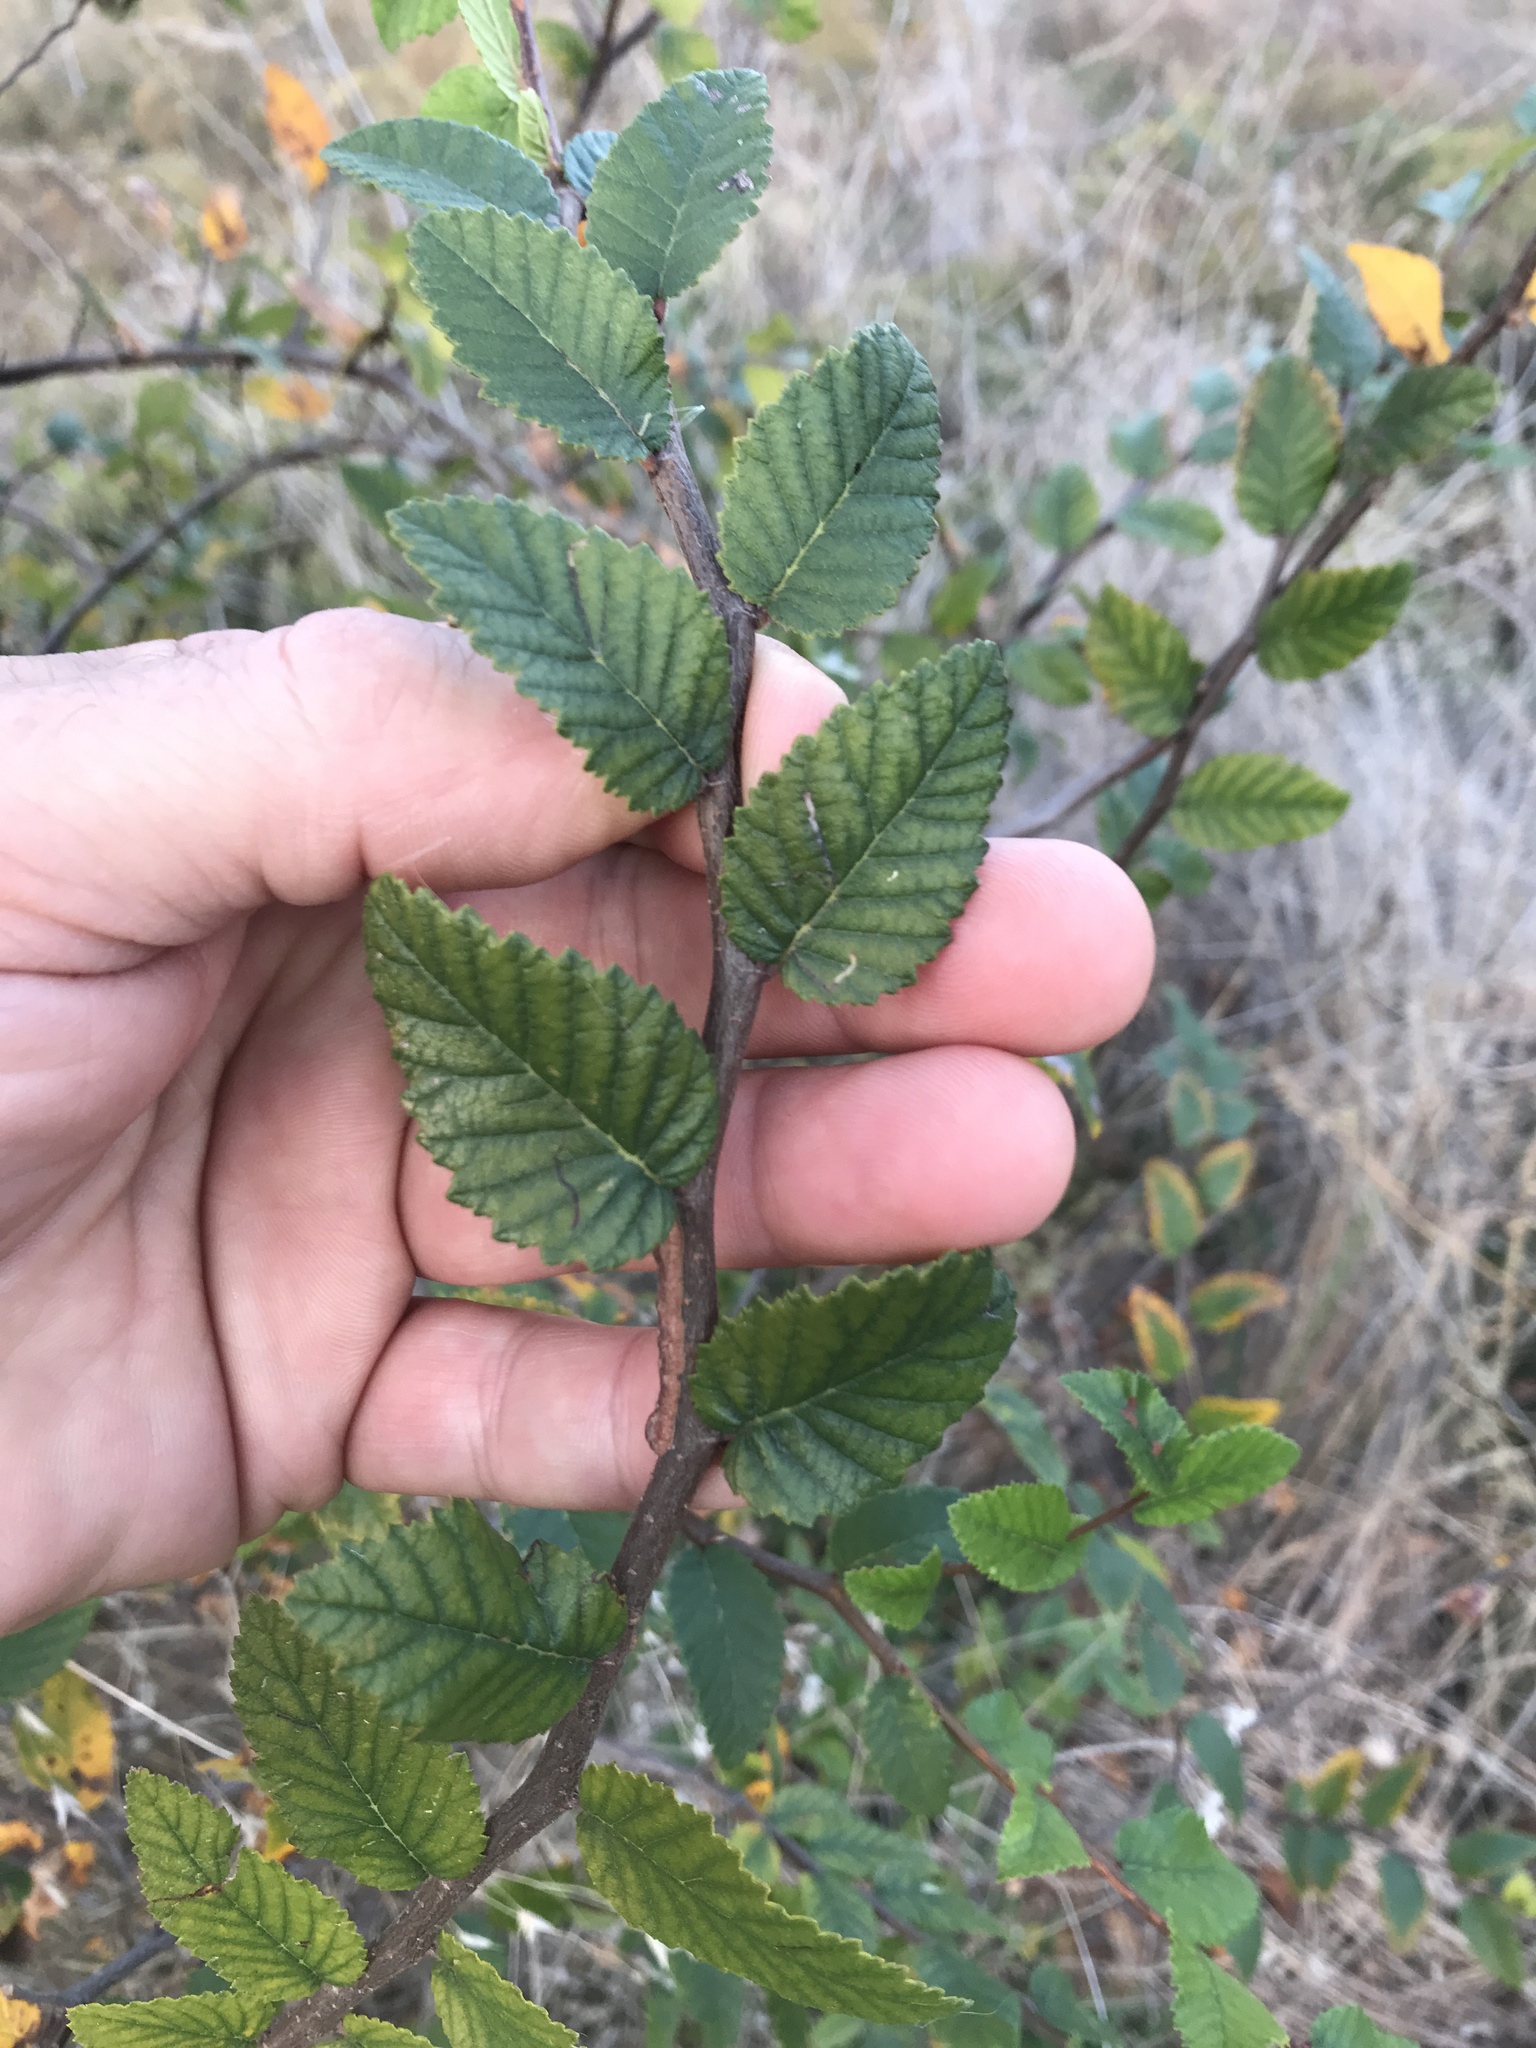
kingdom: Plantae
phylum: Tracheophyta
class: Magnoliopsida
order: Rosales
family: Ulmaceae
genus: Ulmus
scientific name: Ulmus crassifolia
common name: Basket elm
